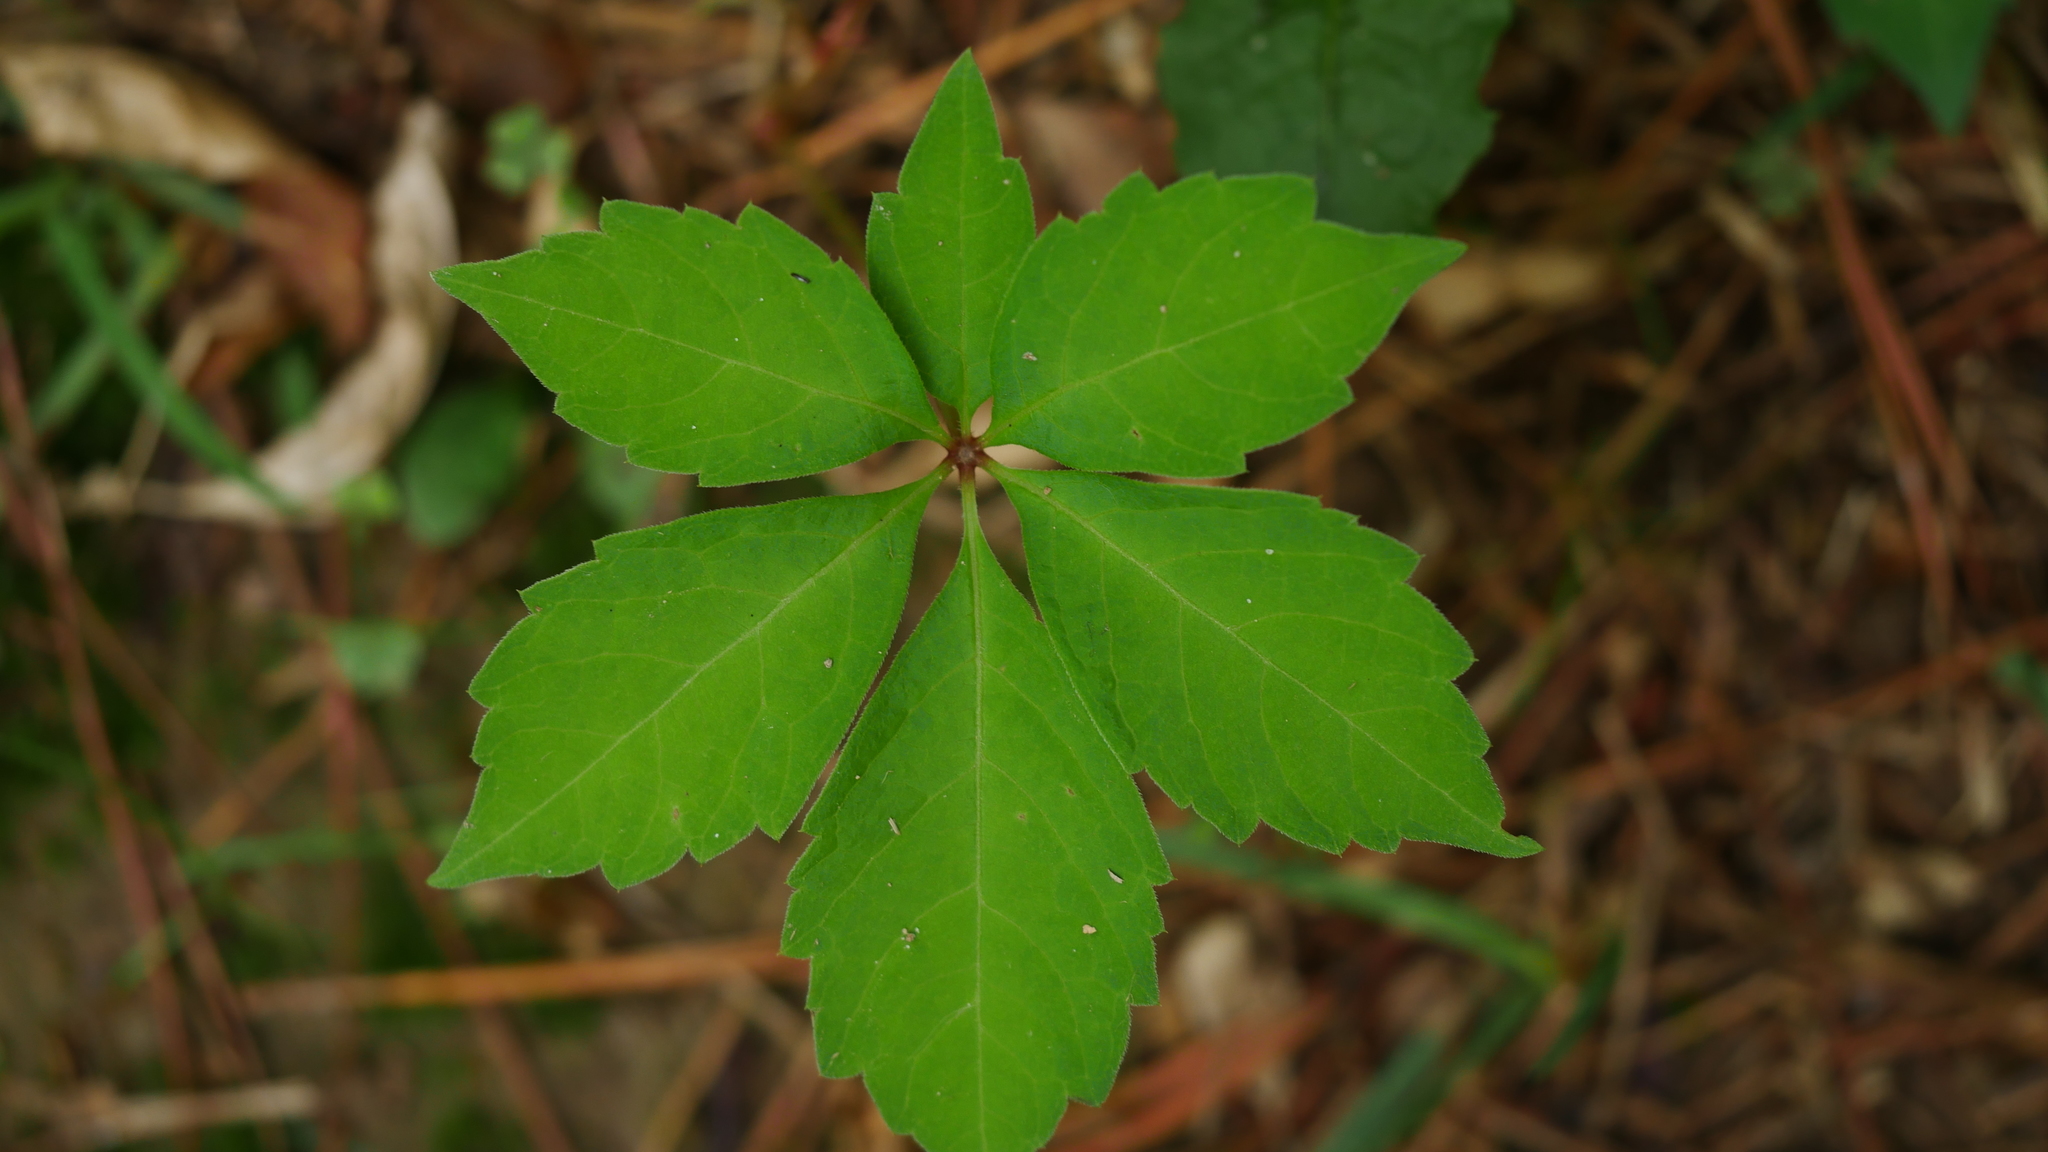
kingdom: Plantae
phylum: Tracheophyta
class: Magnoliopsida
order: Vitales
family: Vitaceae
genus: Parthenocissus
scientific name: Parthenocissus quinquefolia
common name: Virginia-creeper
